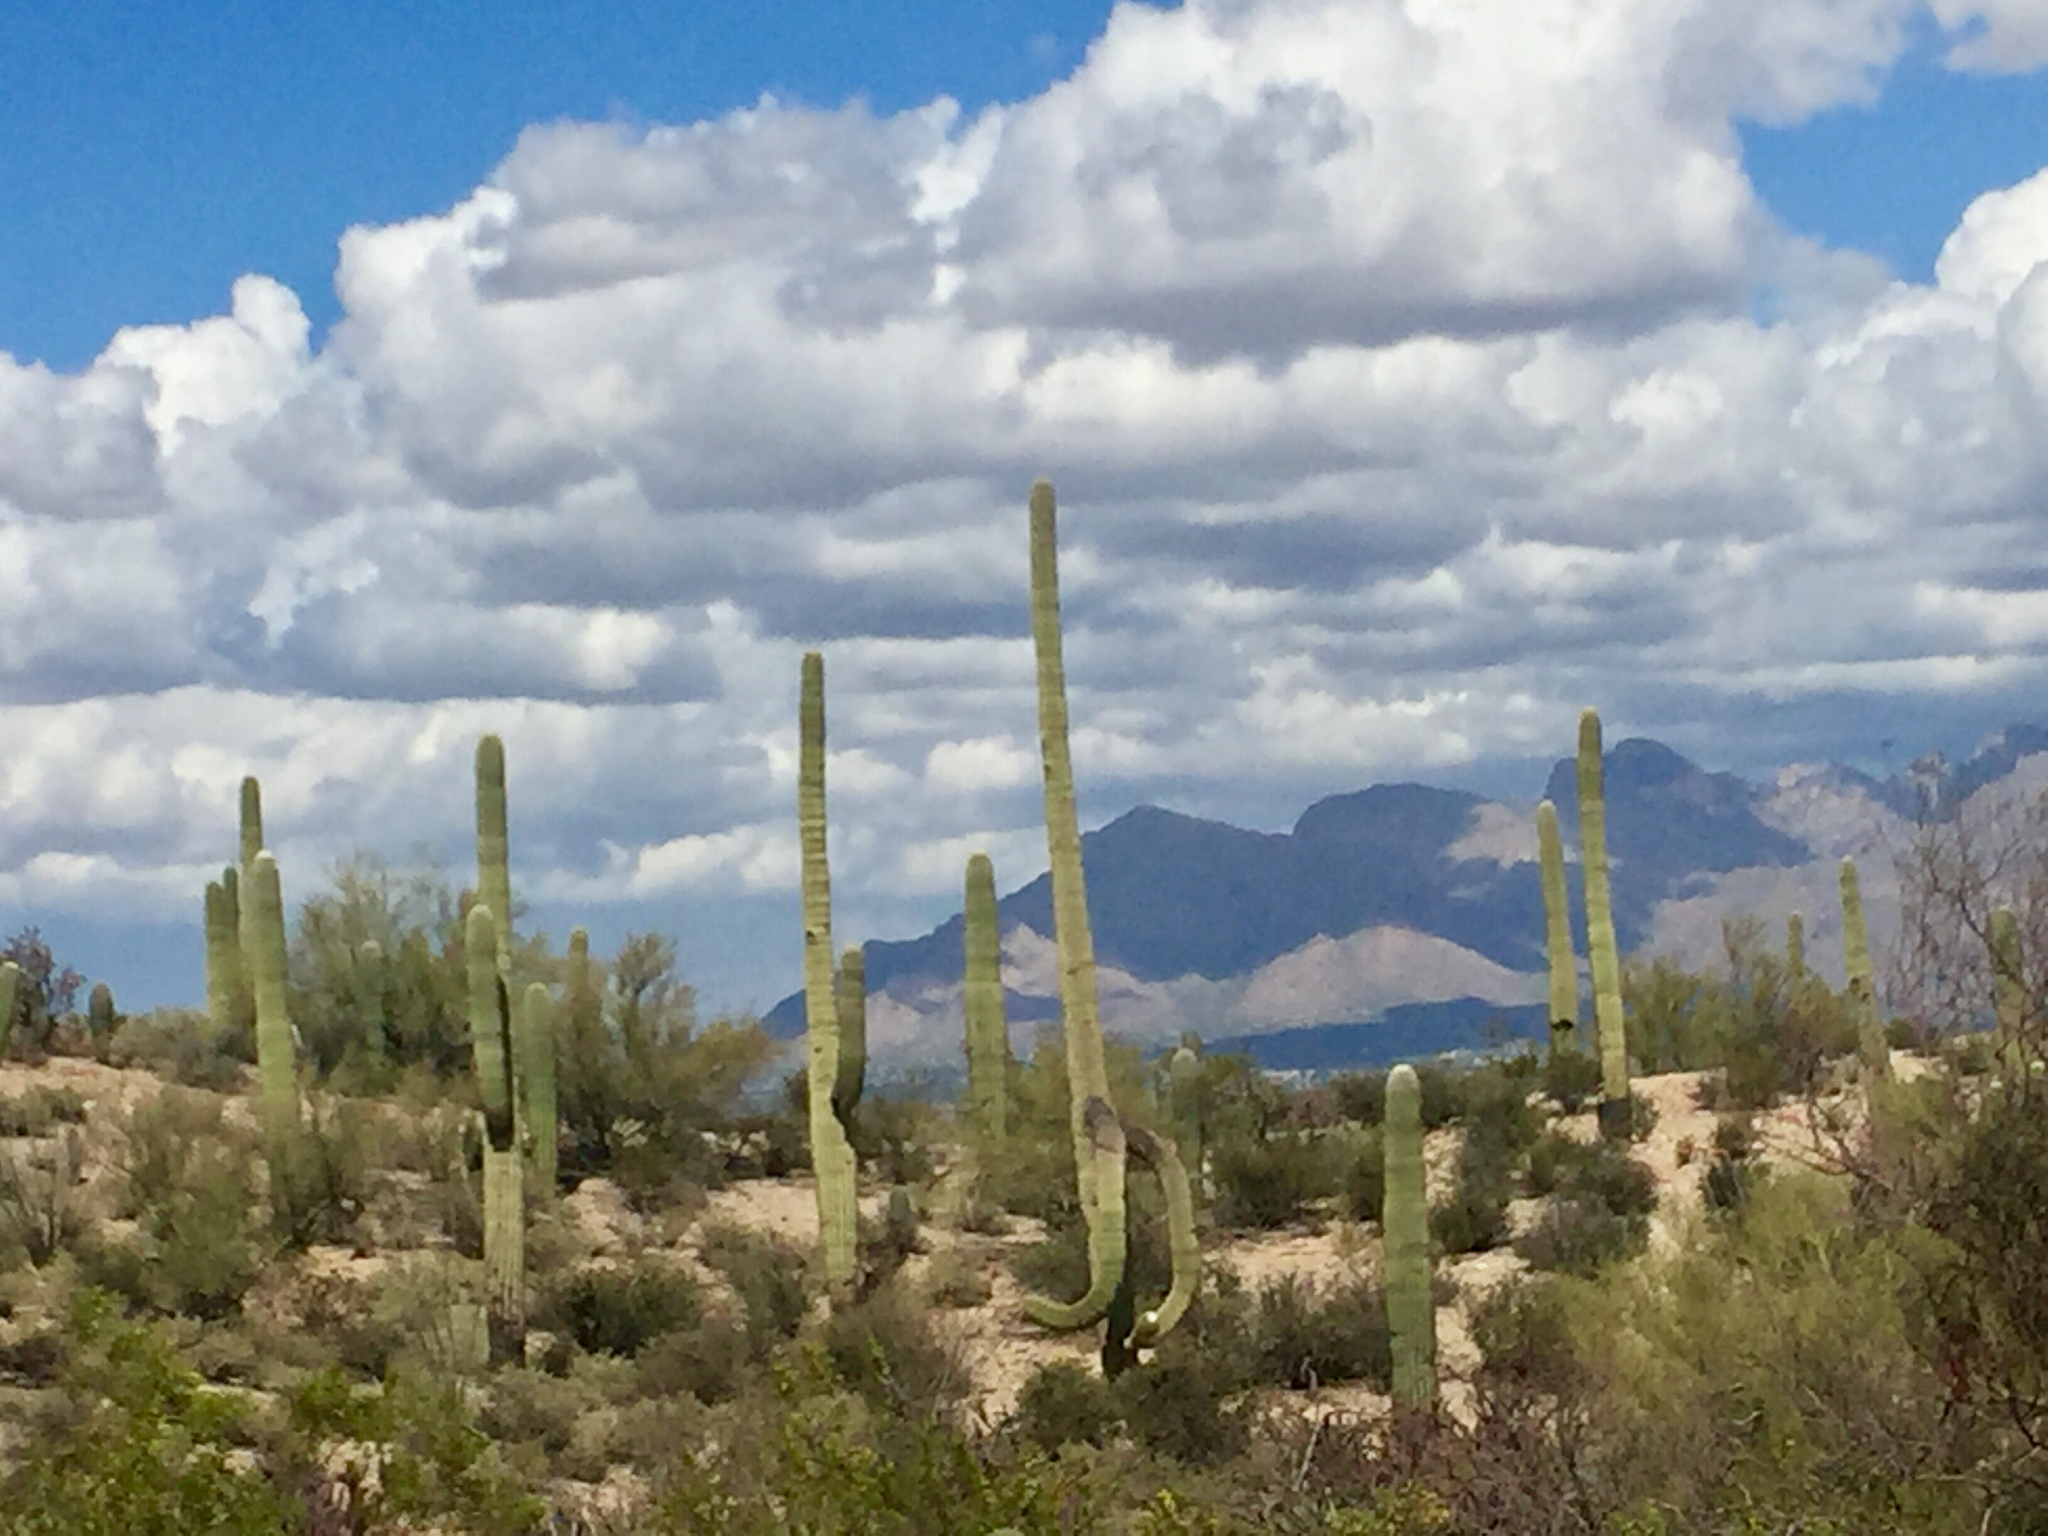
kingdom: Plantae
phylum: Tracheophyta
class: Magnoliopsida
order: Caryophyllales
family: Cactaceae
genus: Carnegiea
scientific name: Carnegiea gigantea
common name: Saguaro
